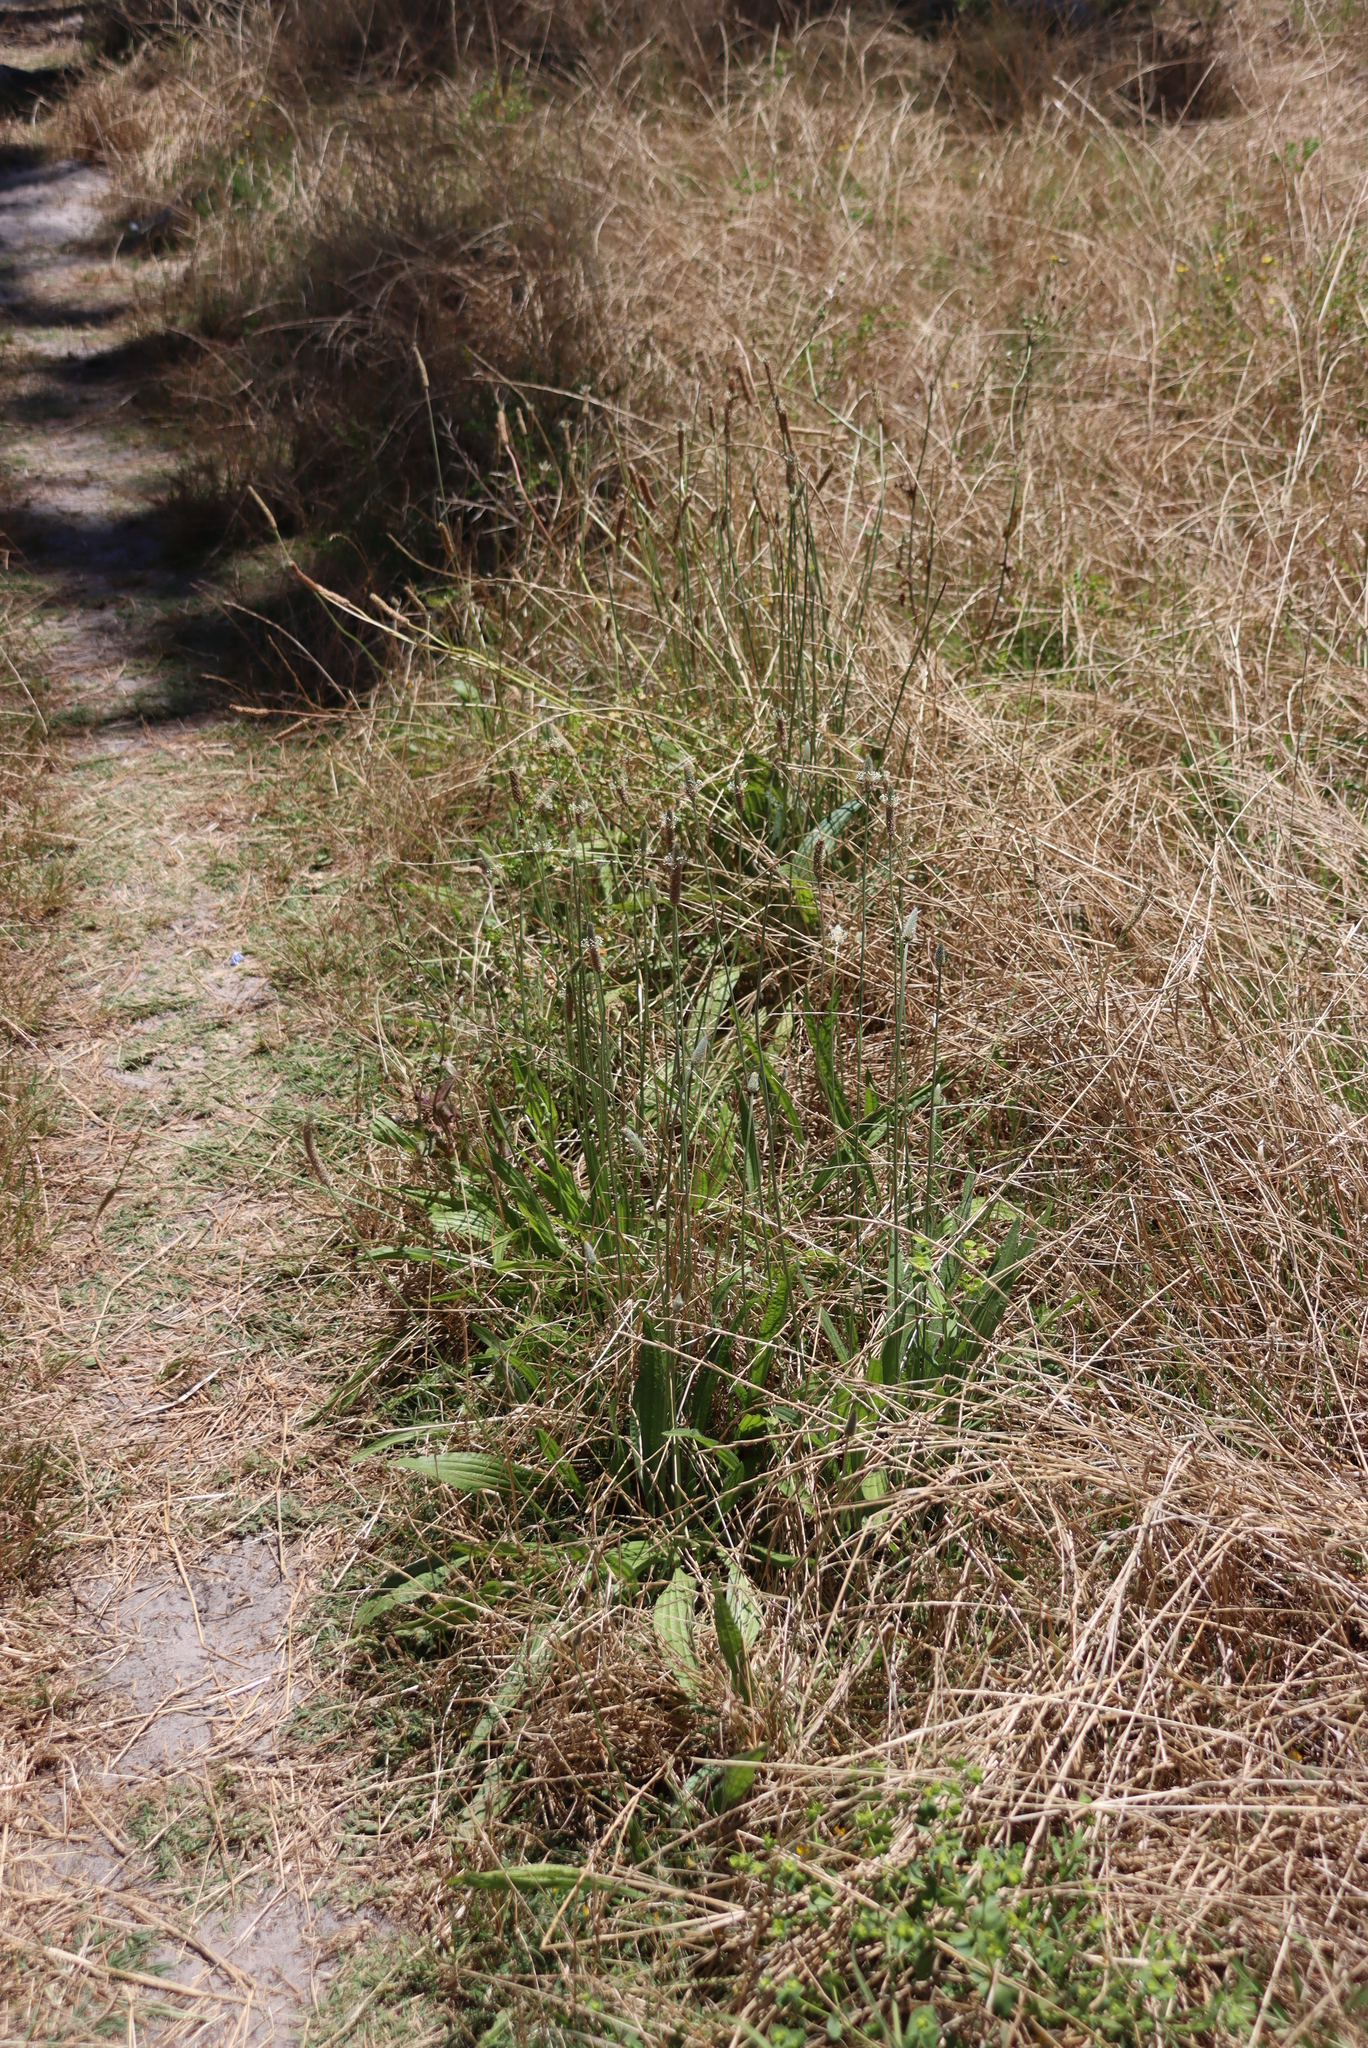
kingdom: Plantae
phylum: Tracheophyta
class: Magnoliopsida
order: Lamiales
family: Plantaginaceae
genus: Plantago
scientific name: Plantago lanceolata
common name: Ribwort plantain
